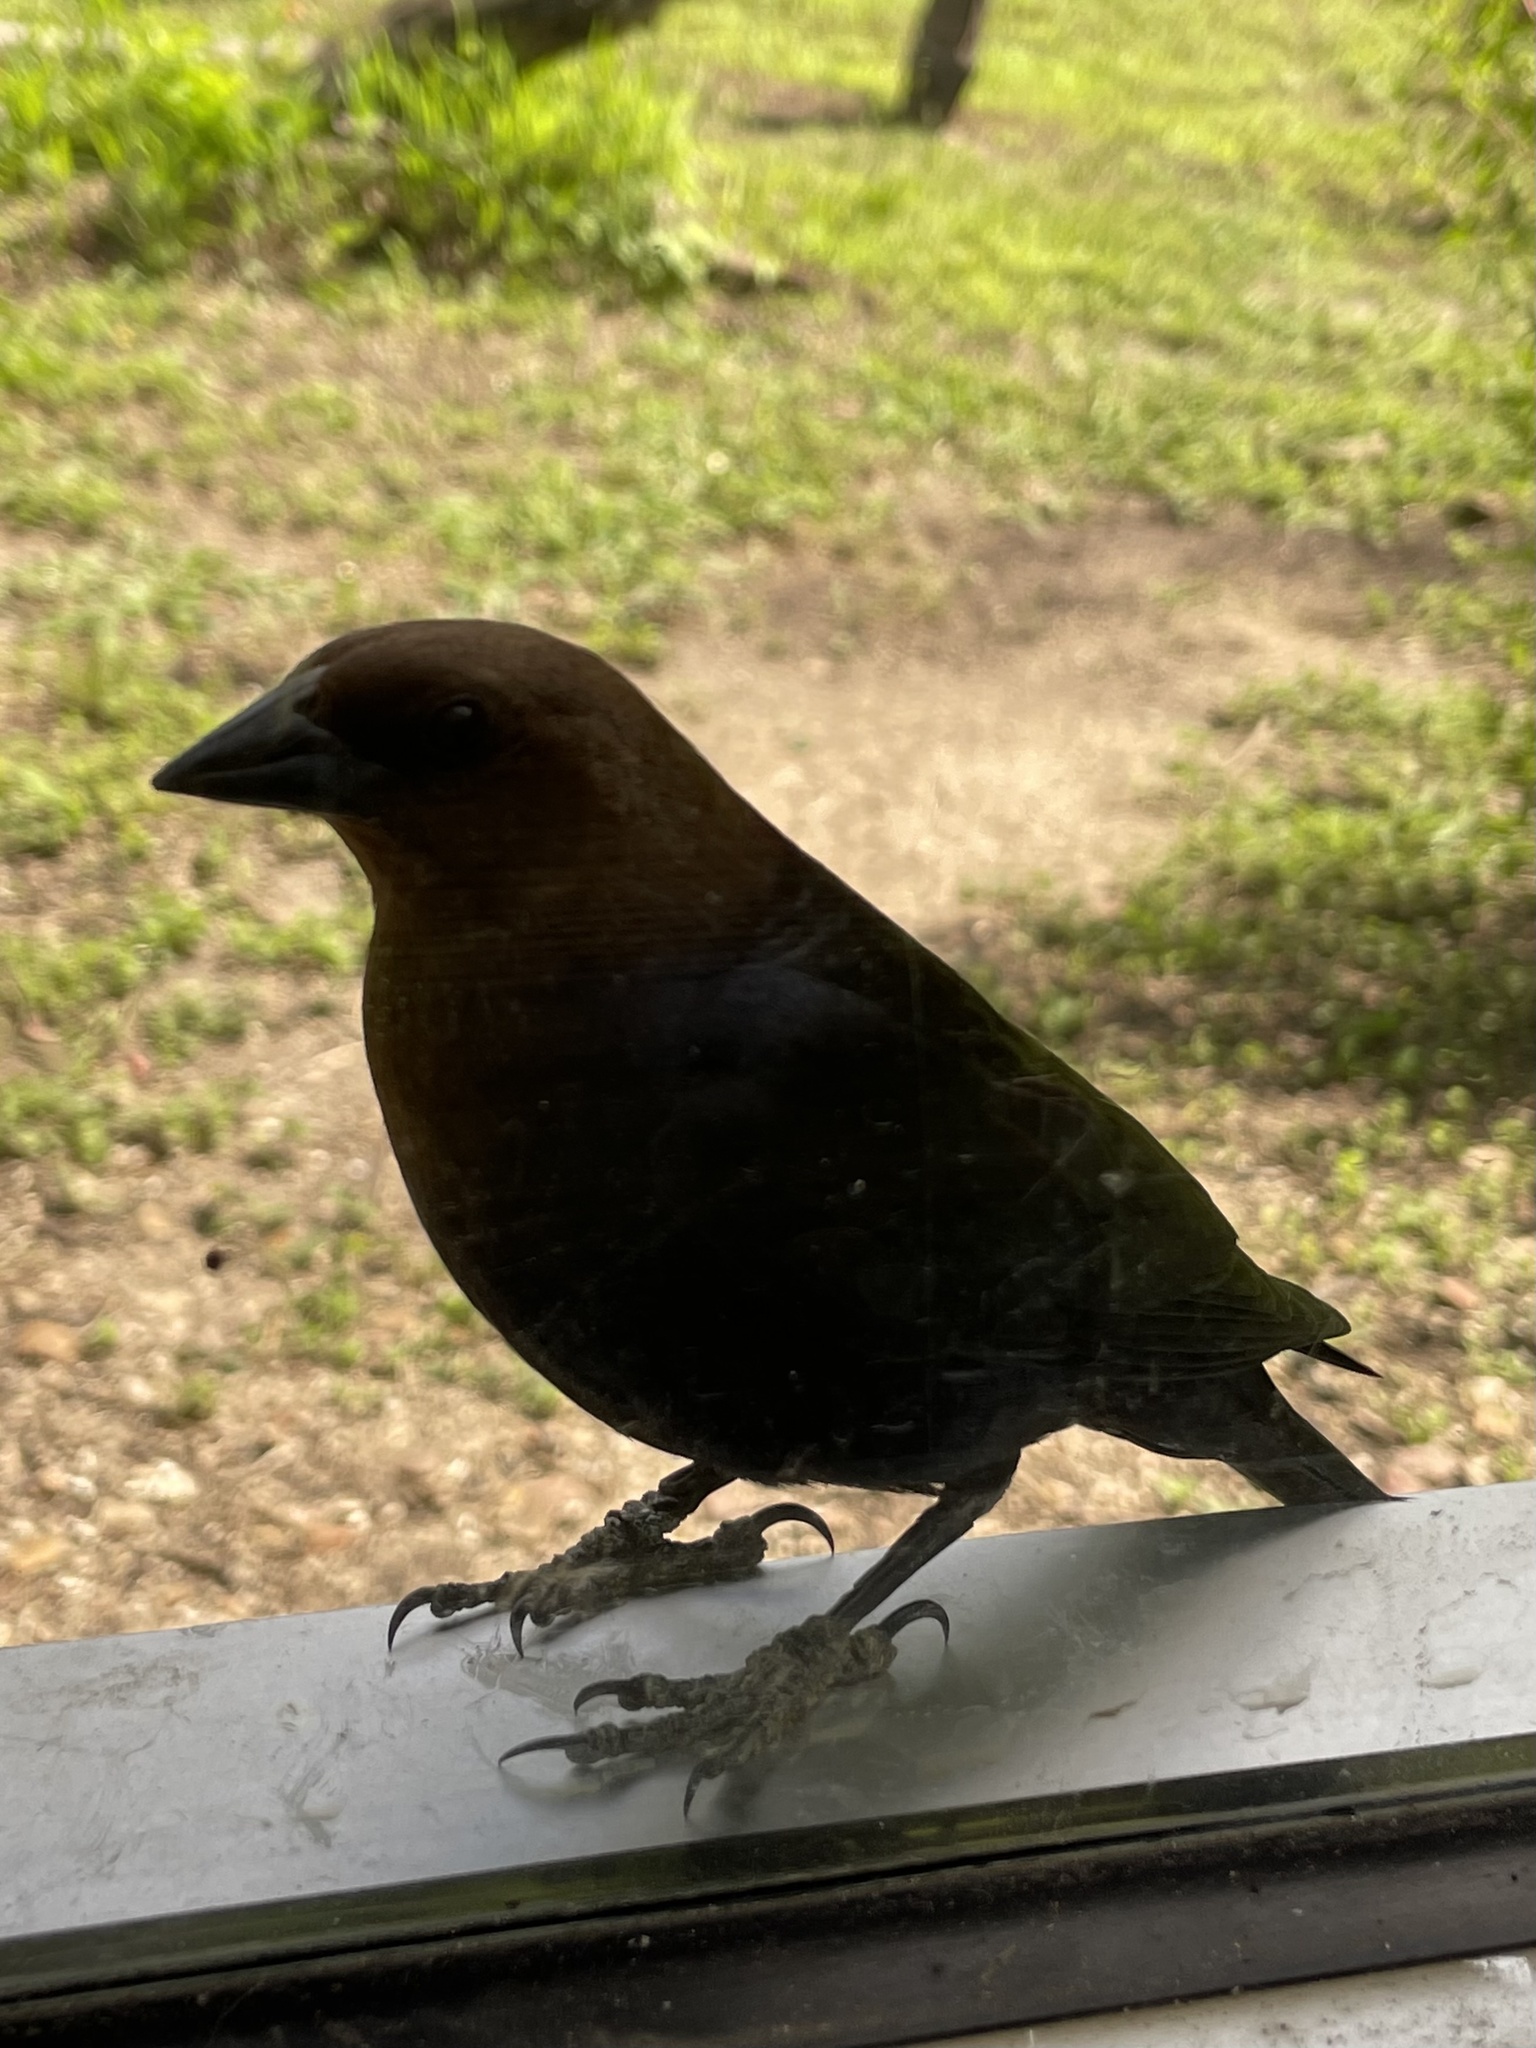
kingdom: Animalia
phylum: Chordata
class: Aves
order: Passeriformes
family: Icteridae
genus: Molothrus
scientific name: Molothrus ater
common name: Brown-headed cowbird
